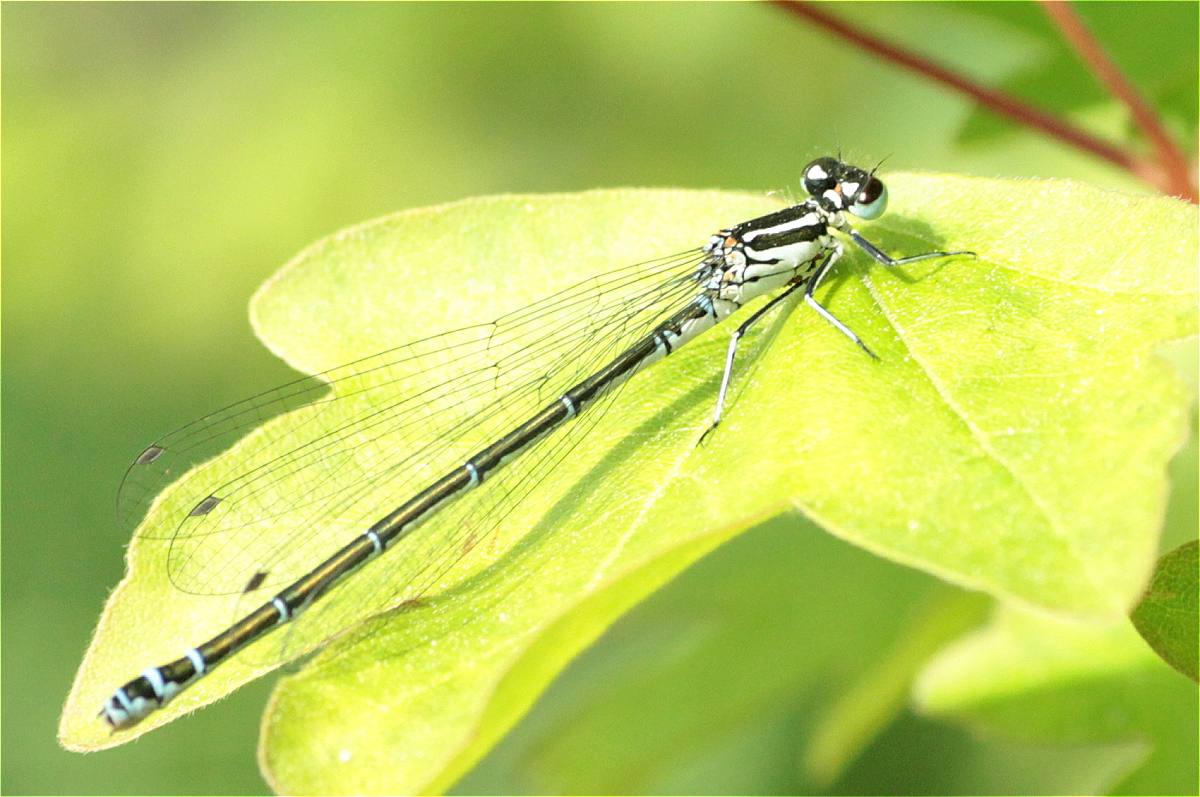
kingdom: Animalia
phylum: Arthropoda
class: Insecta
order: Odonata
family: Coenagrionidae
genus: Coenagrion
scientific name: Coenagrion puella
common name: Azure damselfly
